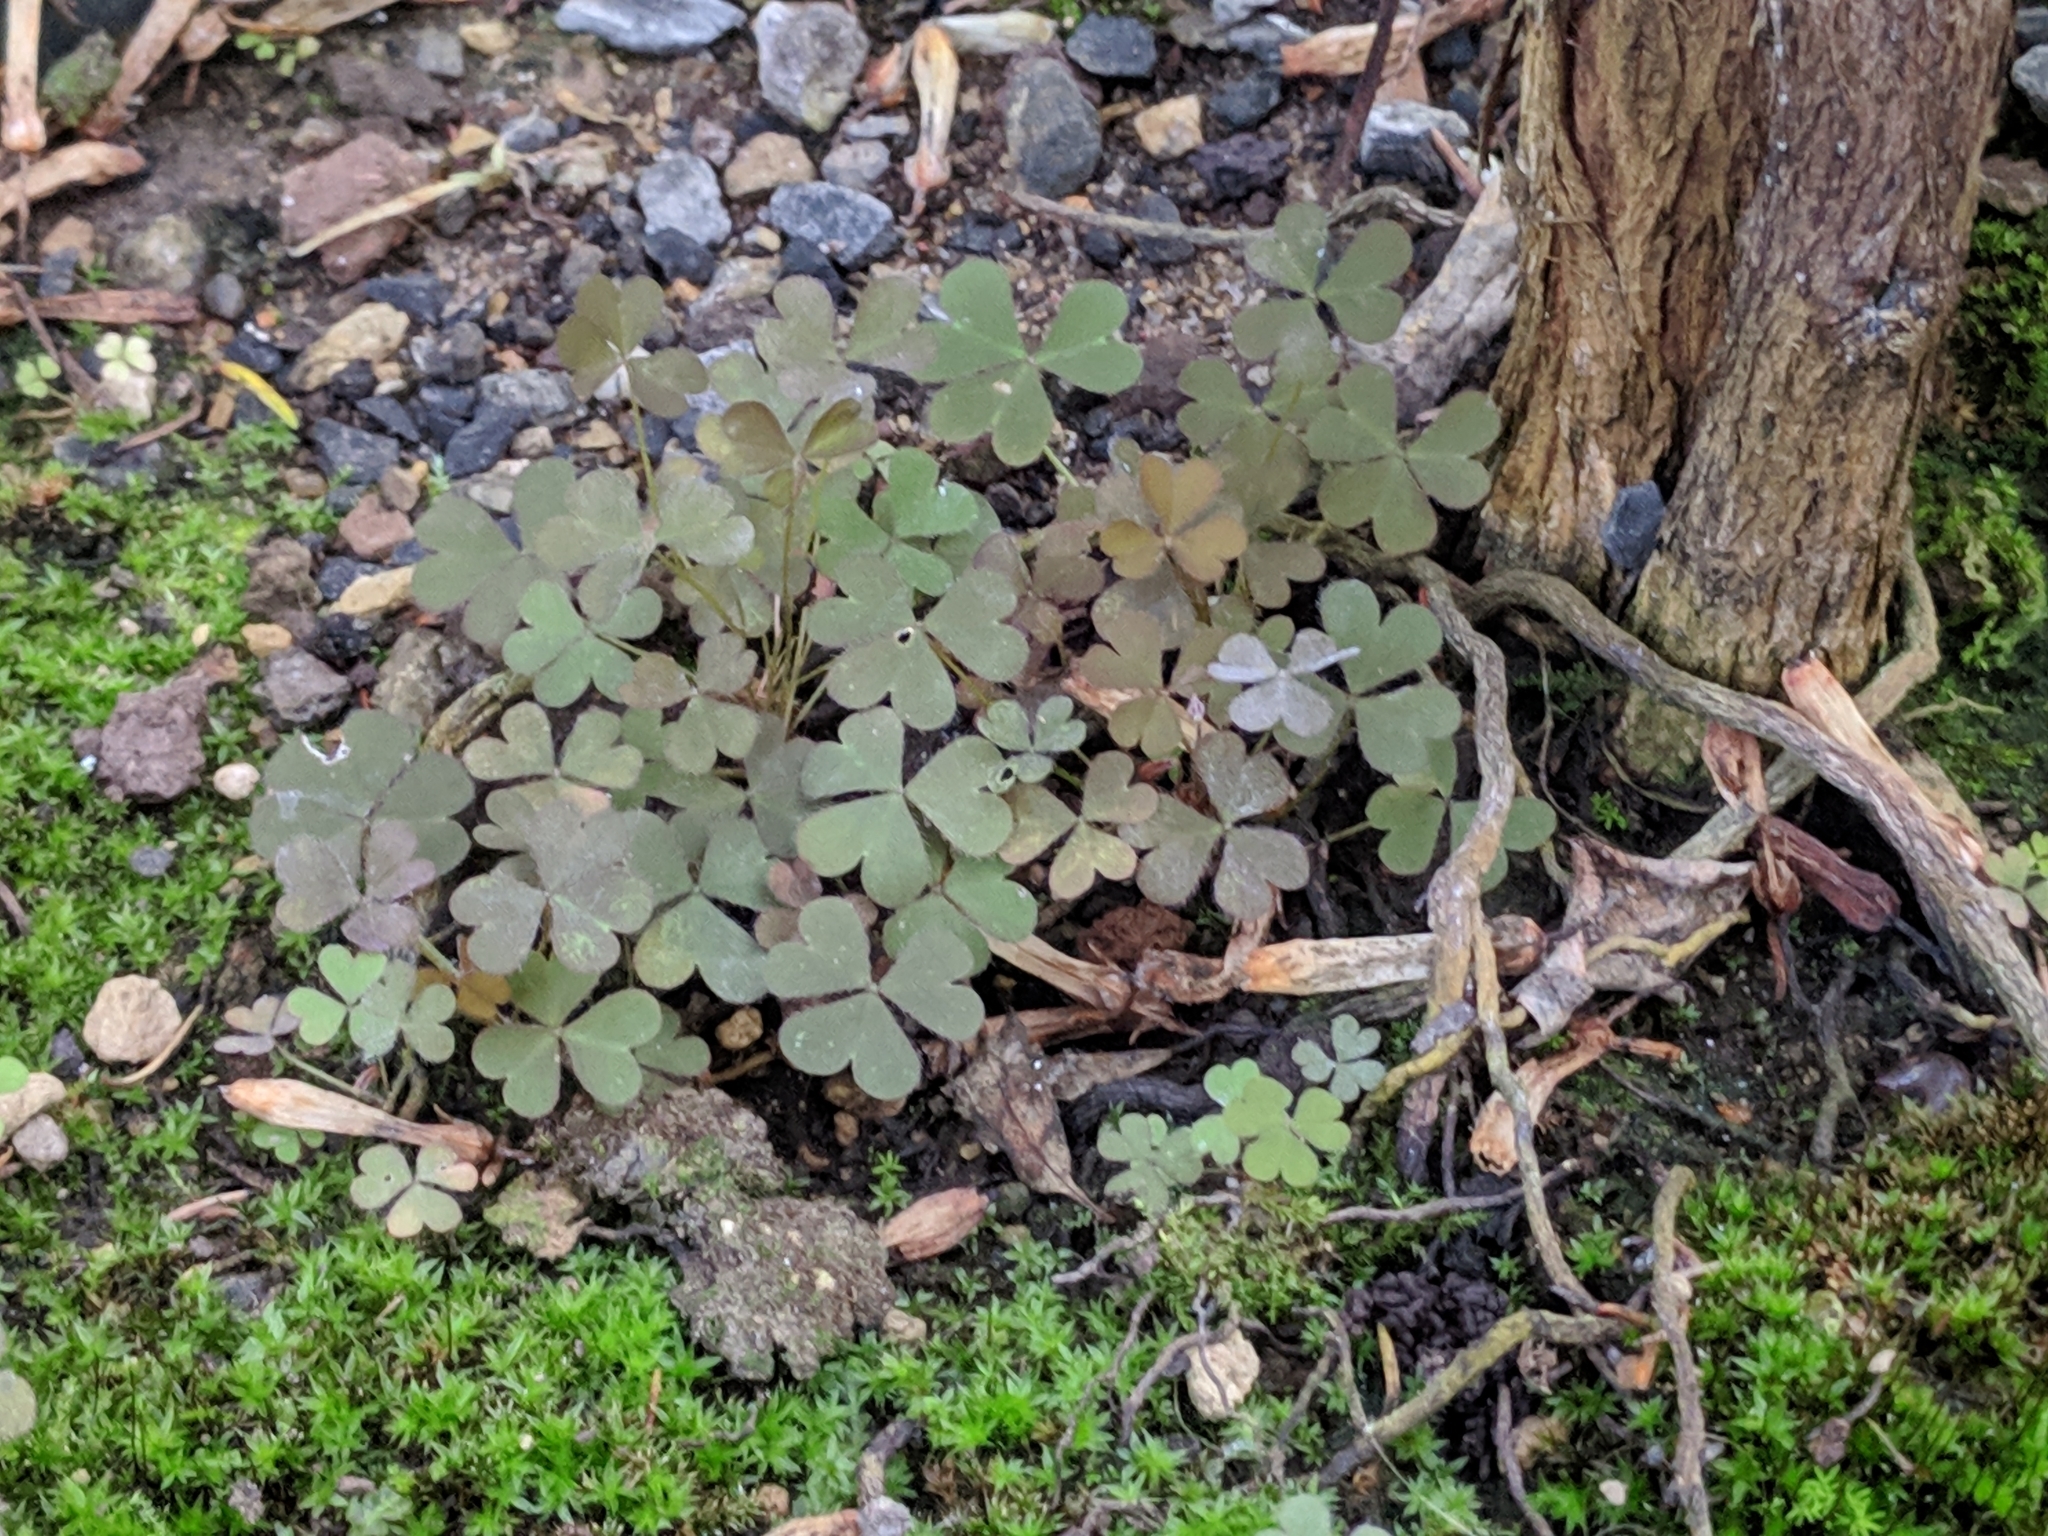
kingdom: Plantae
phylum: Tracheophyta
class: Magnoliopsida
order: Oxalidales
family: Oxalidaceae
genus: Oxalis
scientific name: Oxalis corniculata
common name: Procumbent yellow-sorrel
